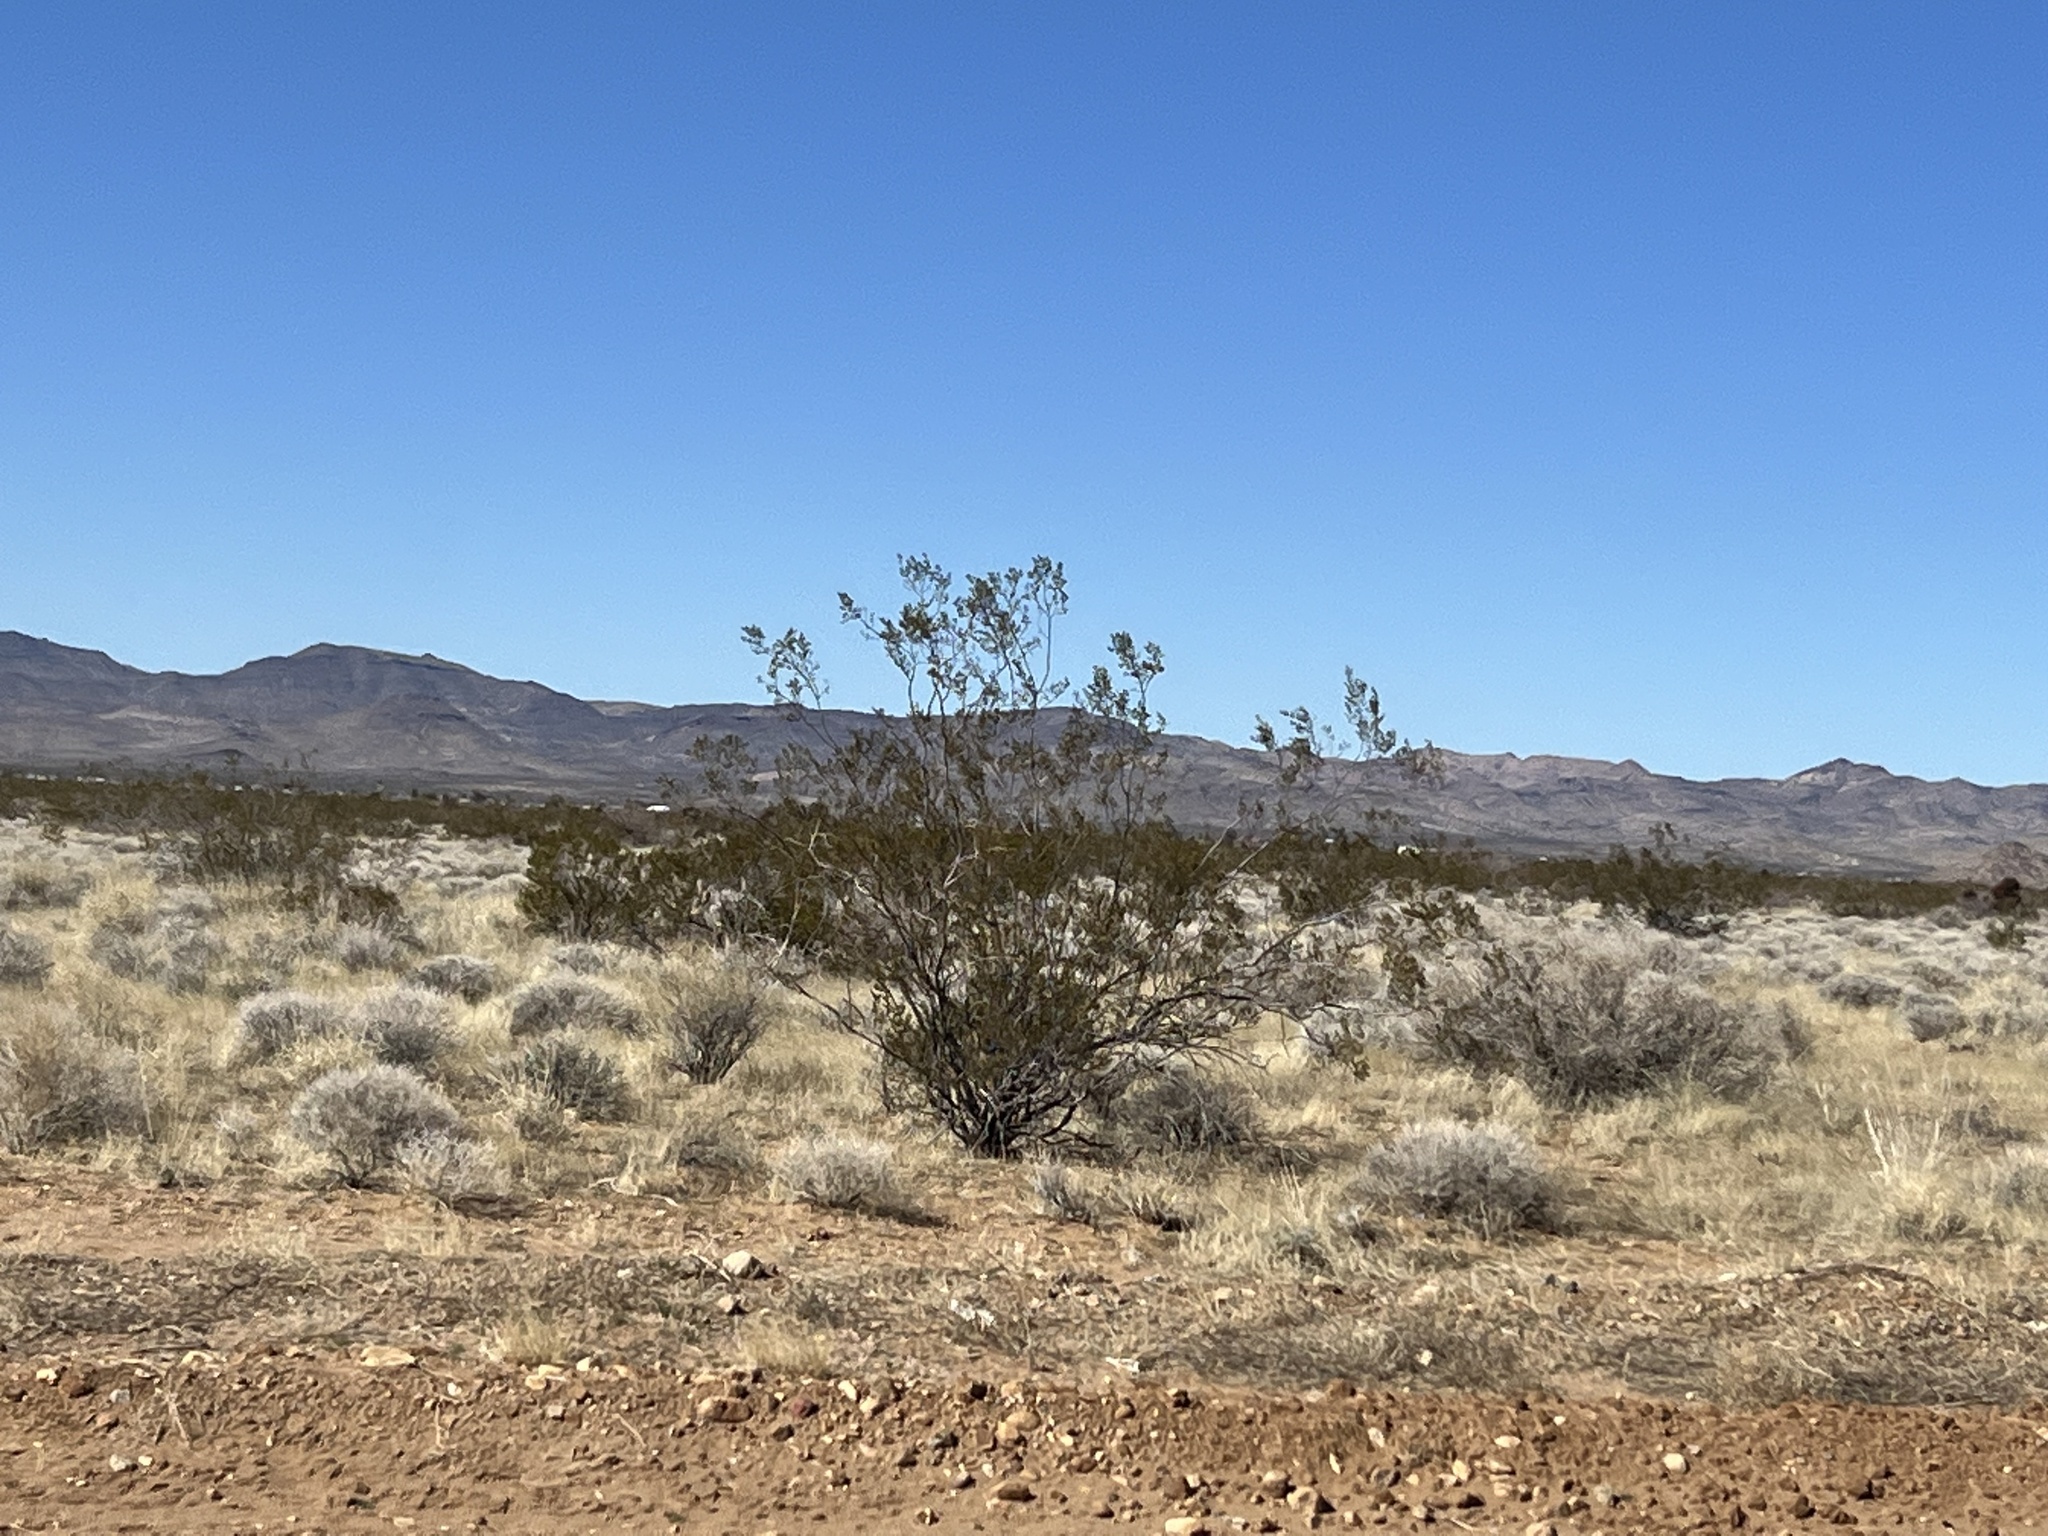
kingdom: Plantae
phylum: Tracheophyta
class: Magnoliopsida
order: Zygophyllales
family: Zygophyllaceae
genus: Larrea
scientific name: Larrea tridentata
